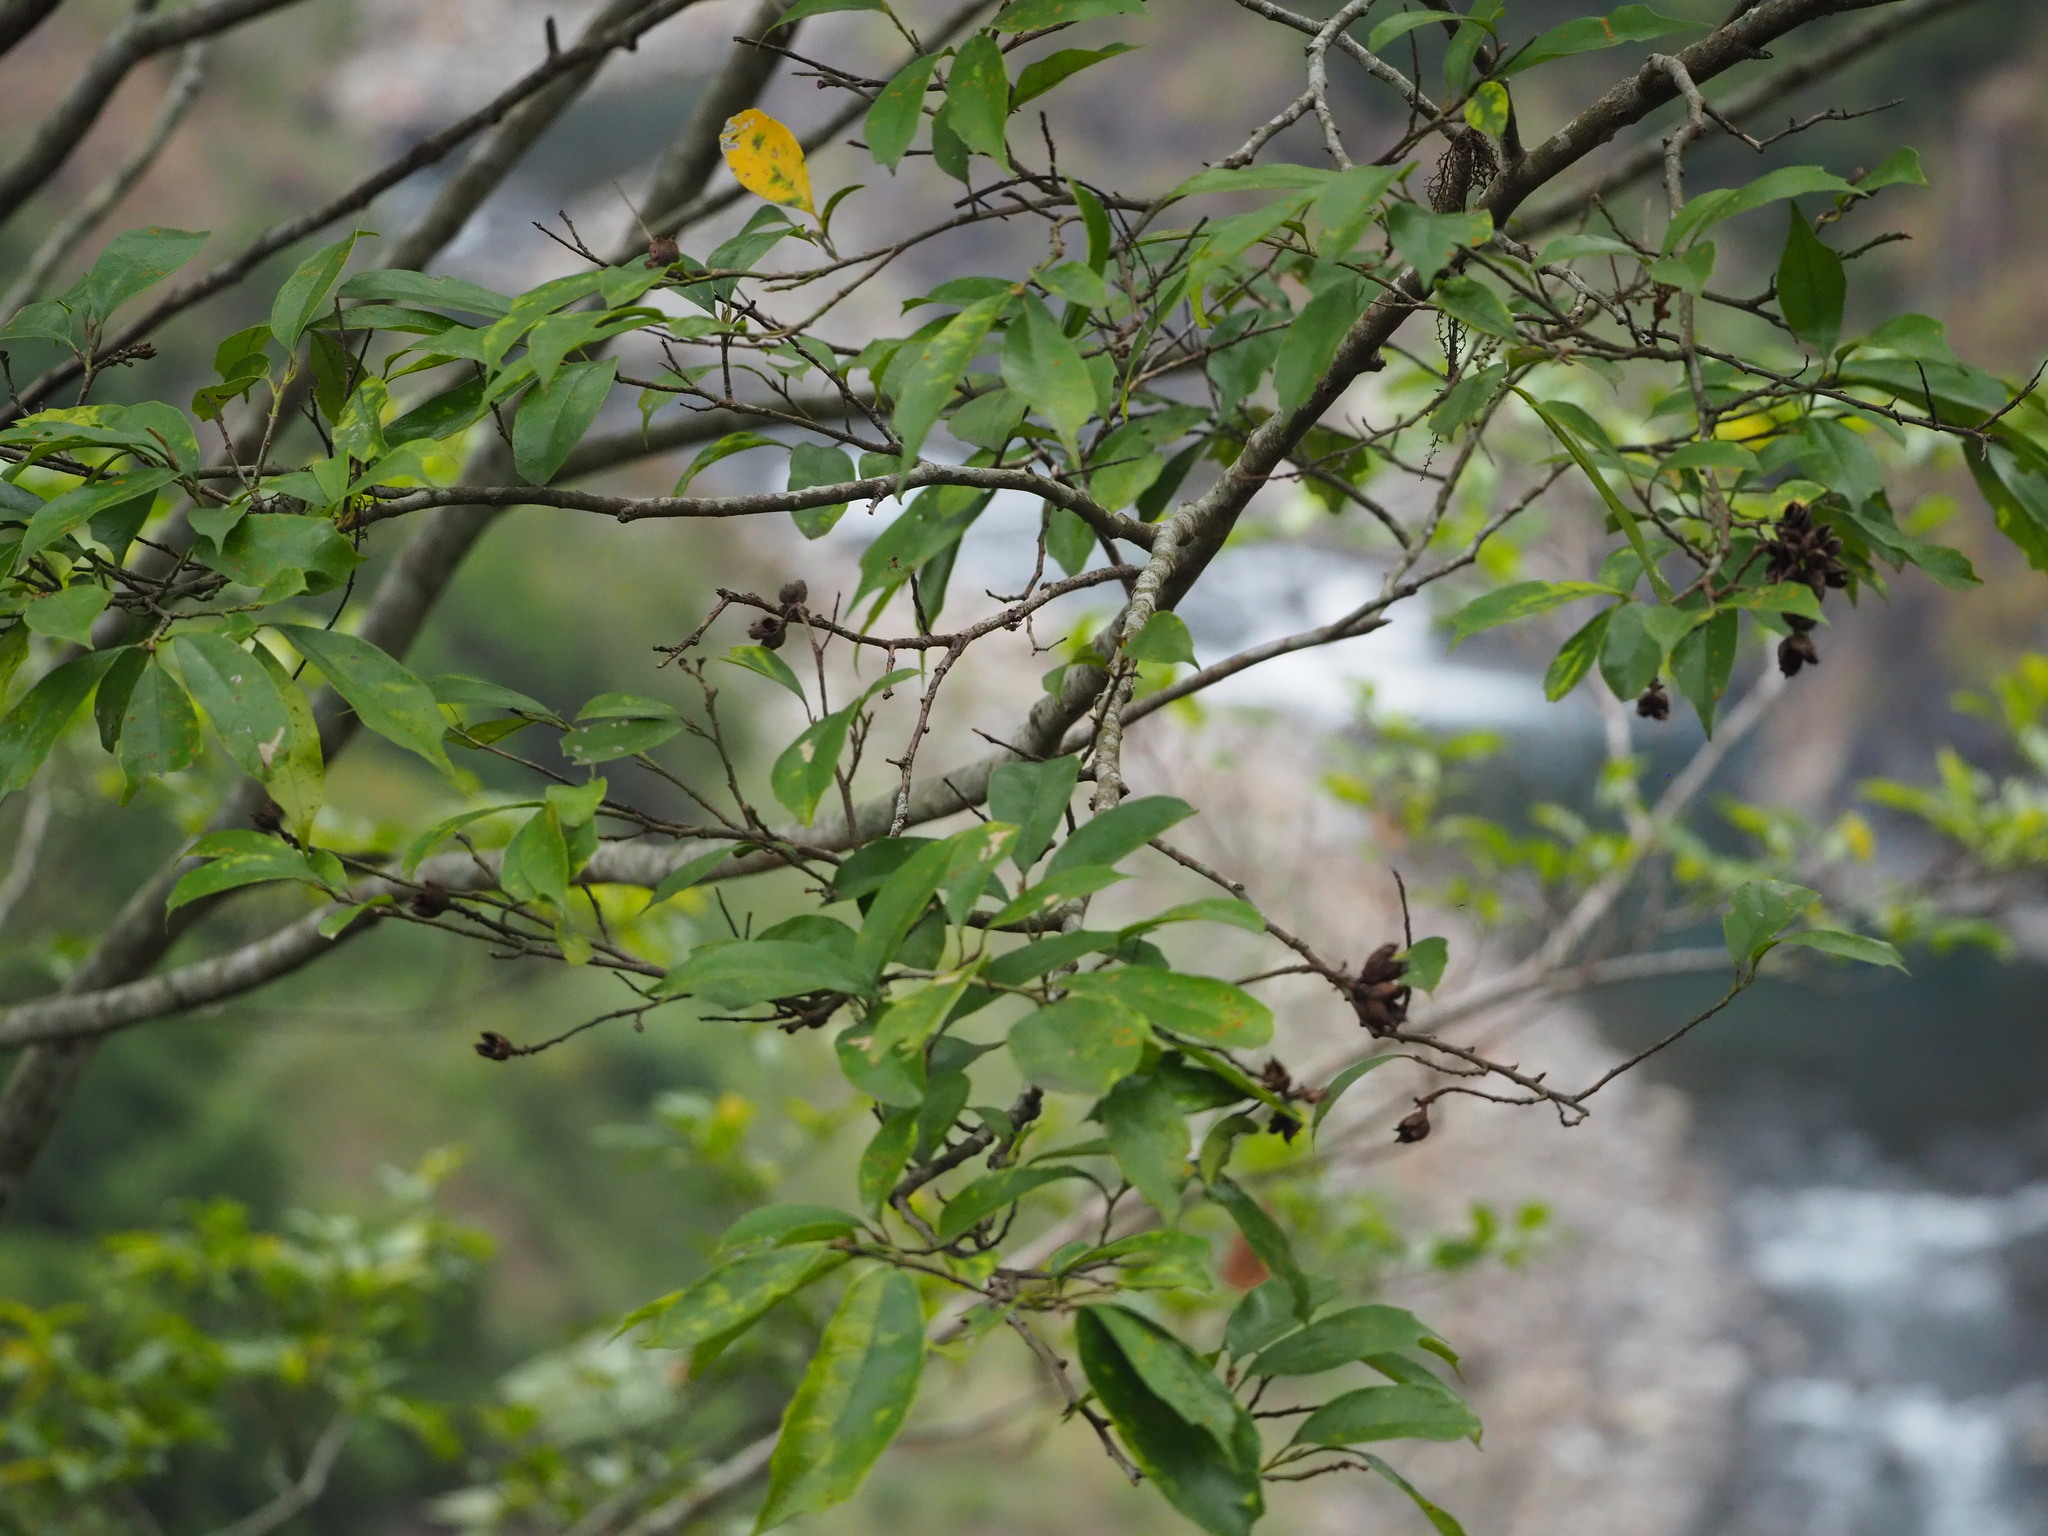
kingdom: Plantae
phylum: Tracheophyta
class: Magnoliopsida
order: Saxifragales
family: Hamamelidaceae
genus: Eustigma
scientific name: Eustigma oblongifolium
